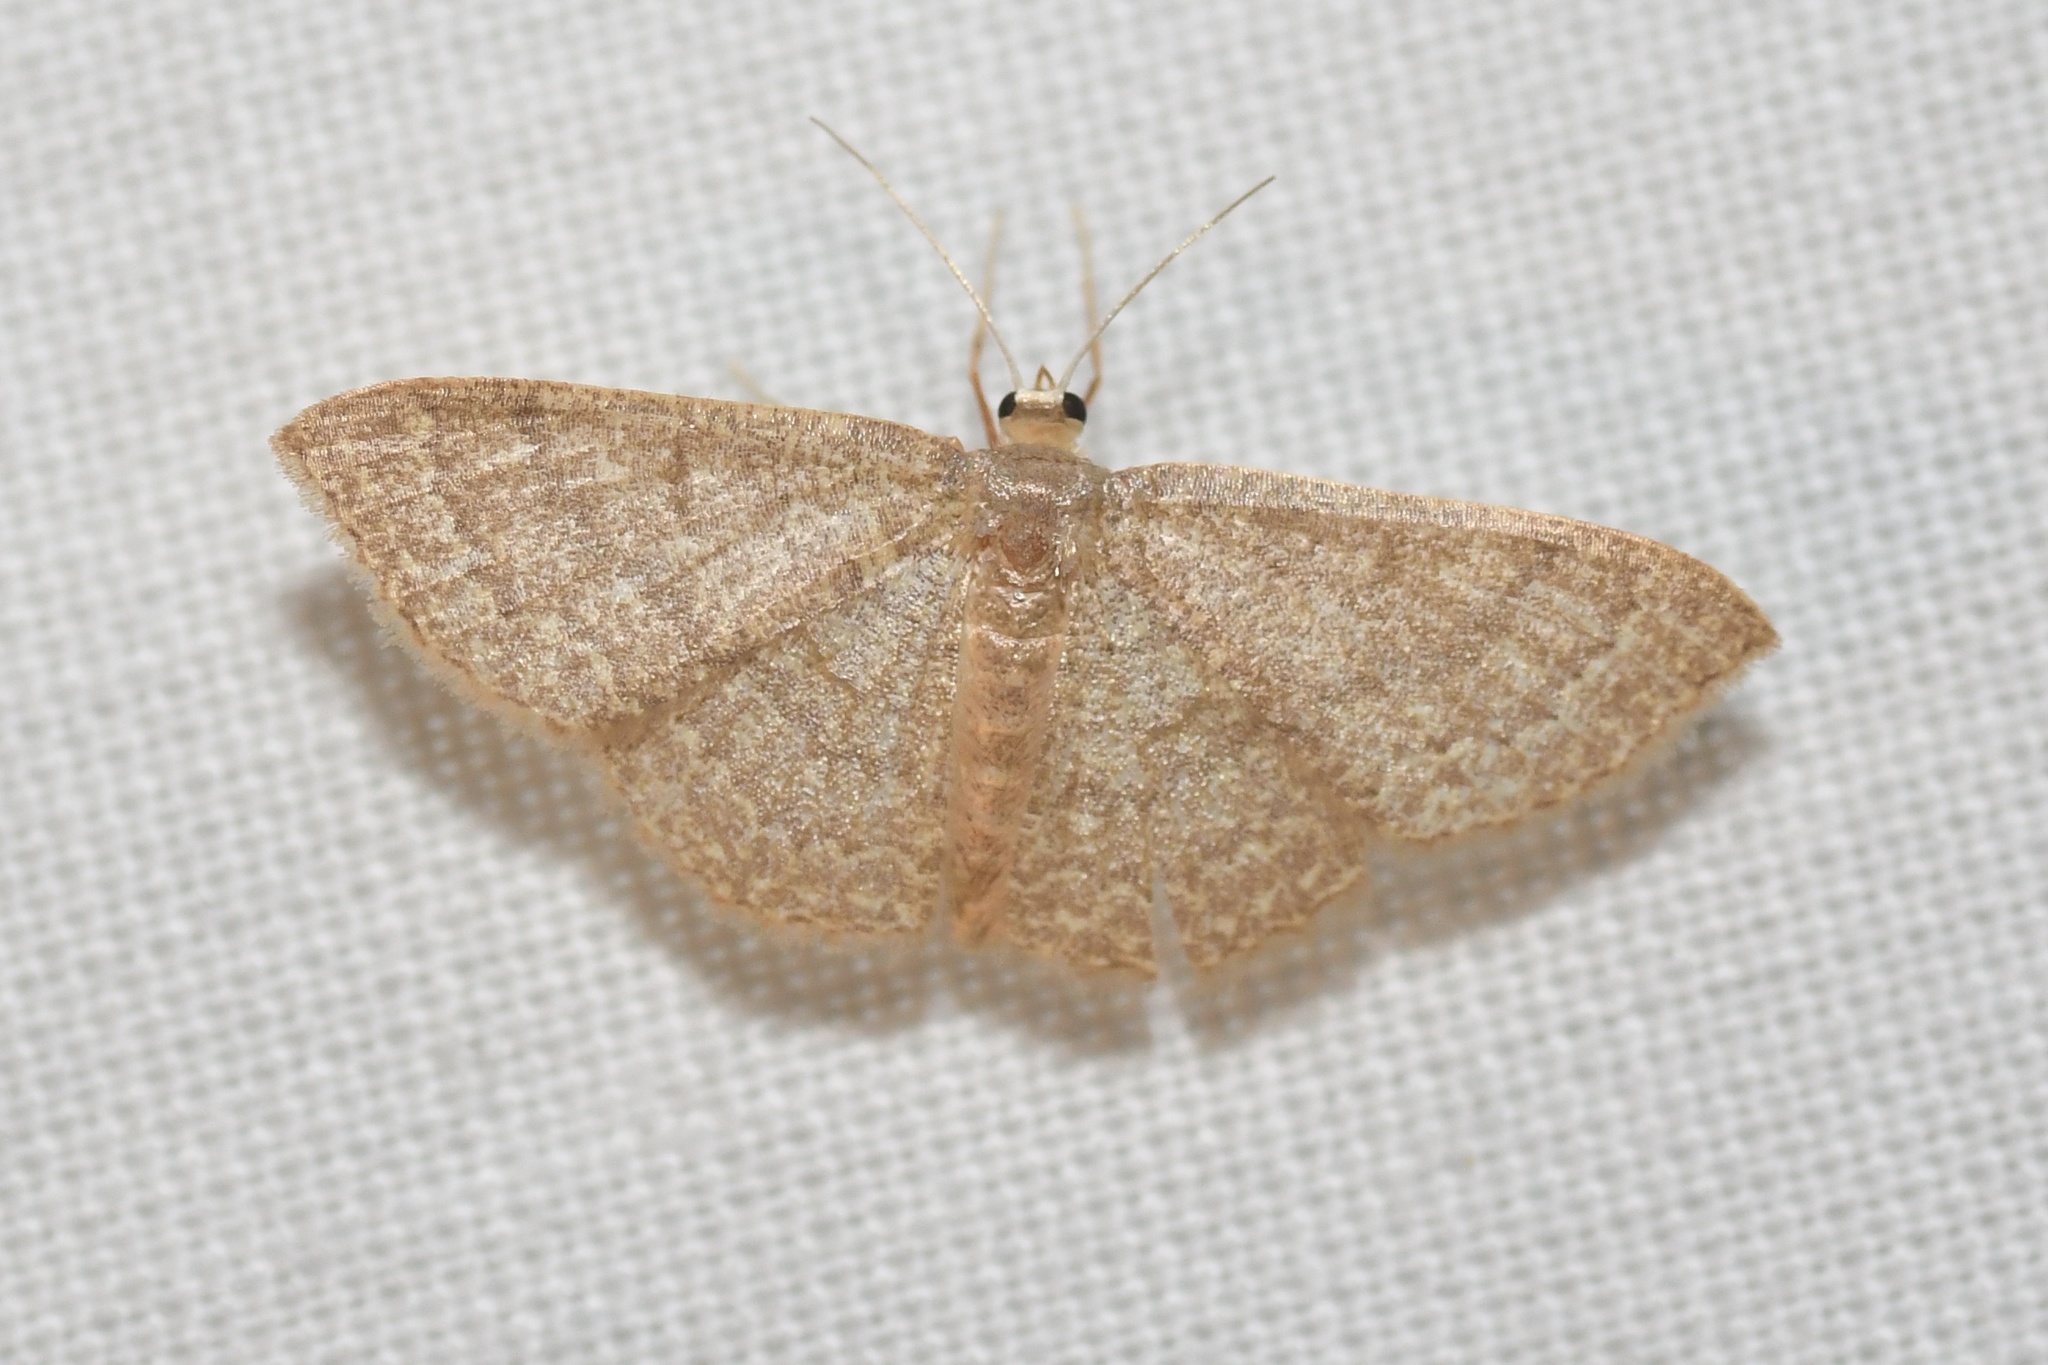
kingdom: Animalia
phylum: Arthropoda
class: Insecta
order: Lepidoptera
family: Geometridae
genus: Pleuroprucha
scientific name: Pleuroprucha insulsaria
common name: Common tan wave
